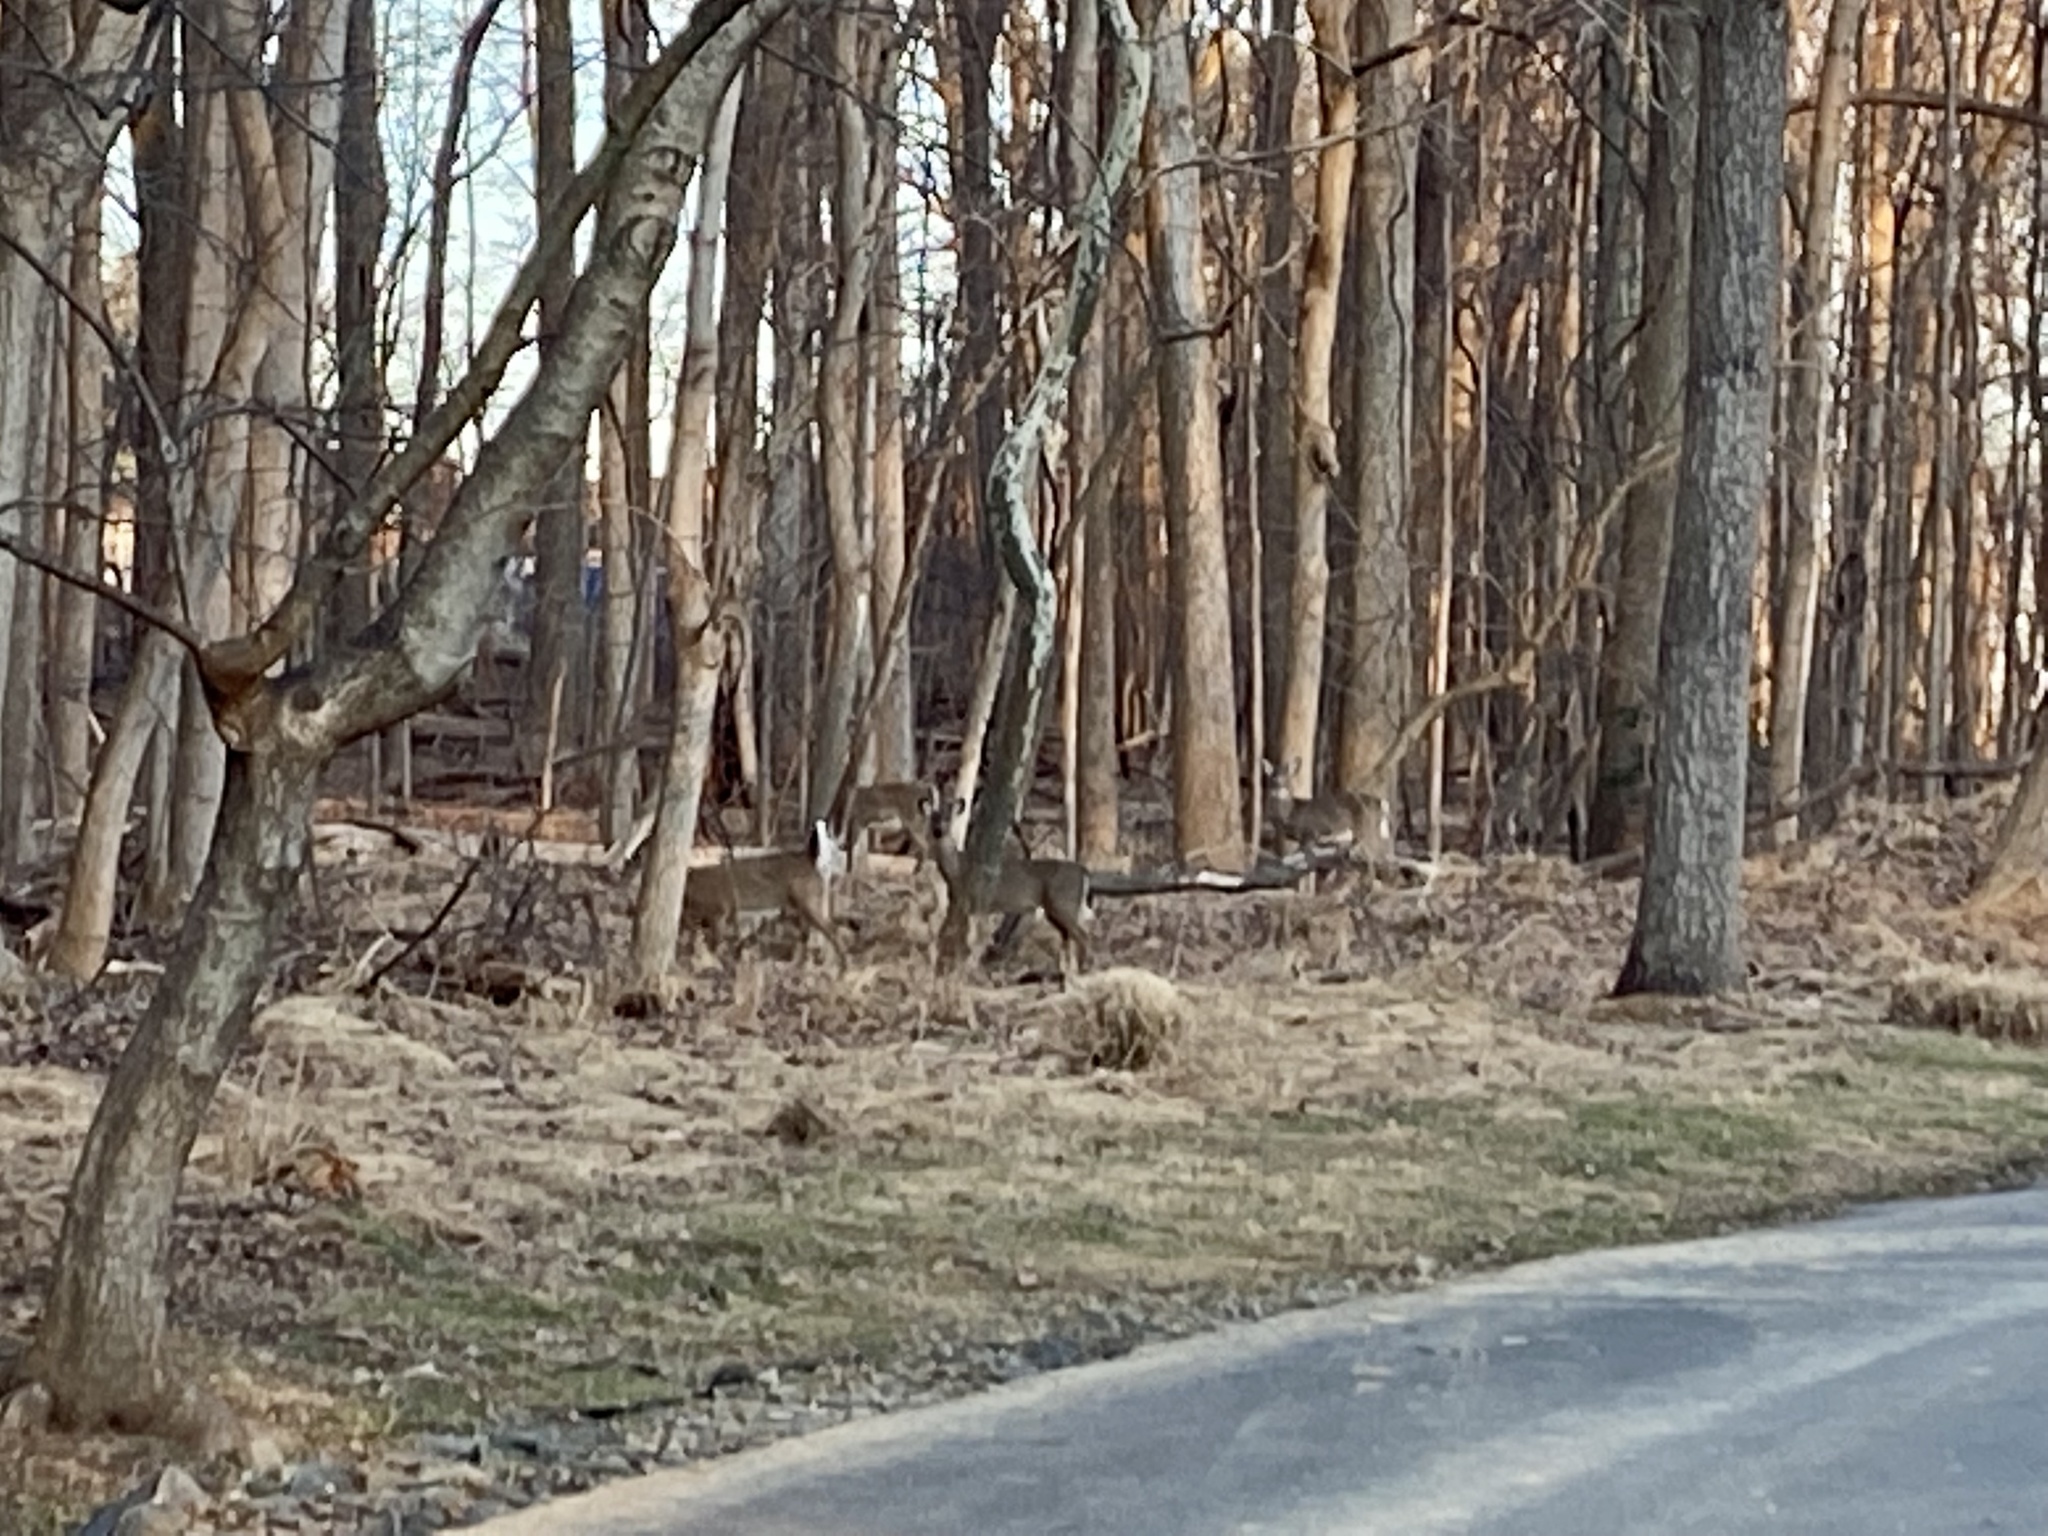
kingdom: Animalia
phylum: Chordata
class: Mammalia
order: Artiodactyla
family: Cervidae
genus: Odocoileus
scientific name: Odocoileus virginianus
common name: White-tailed deer
